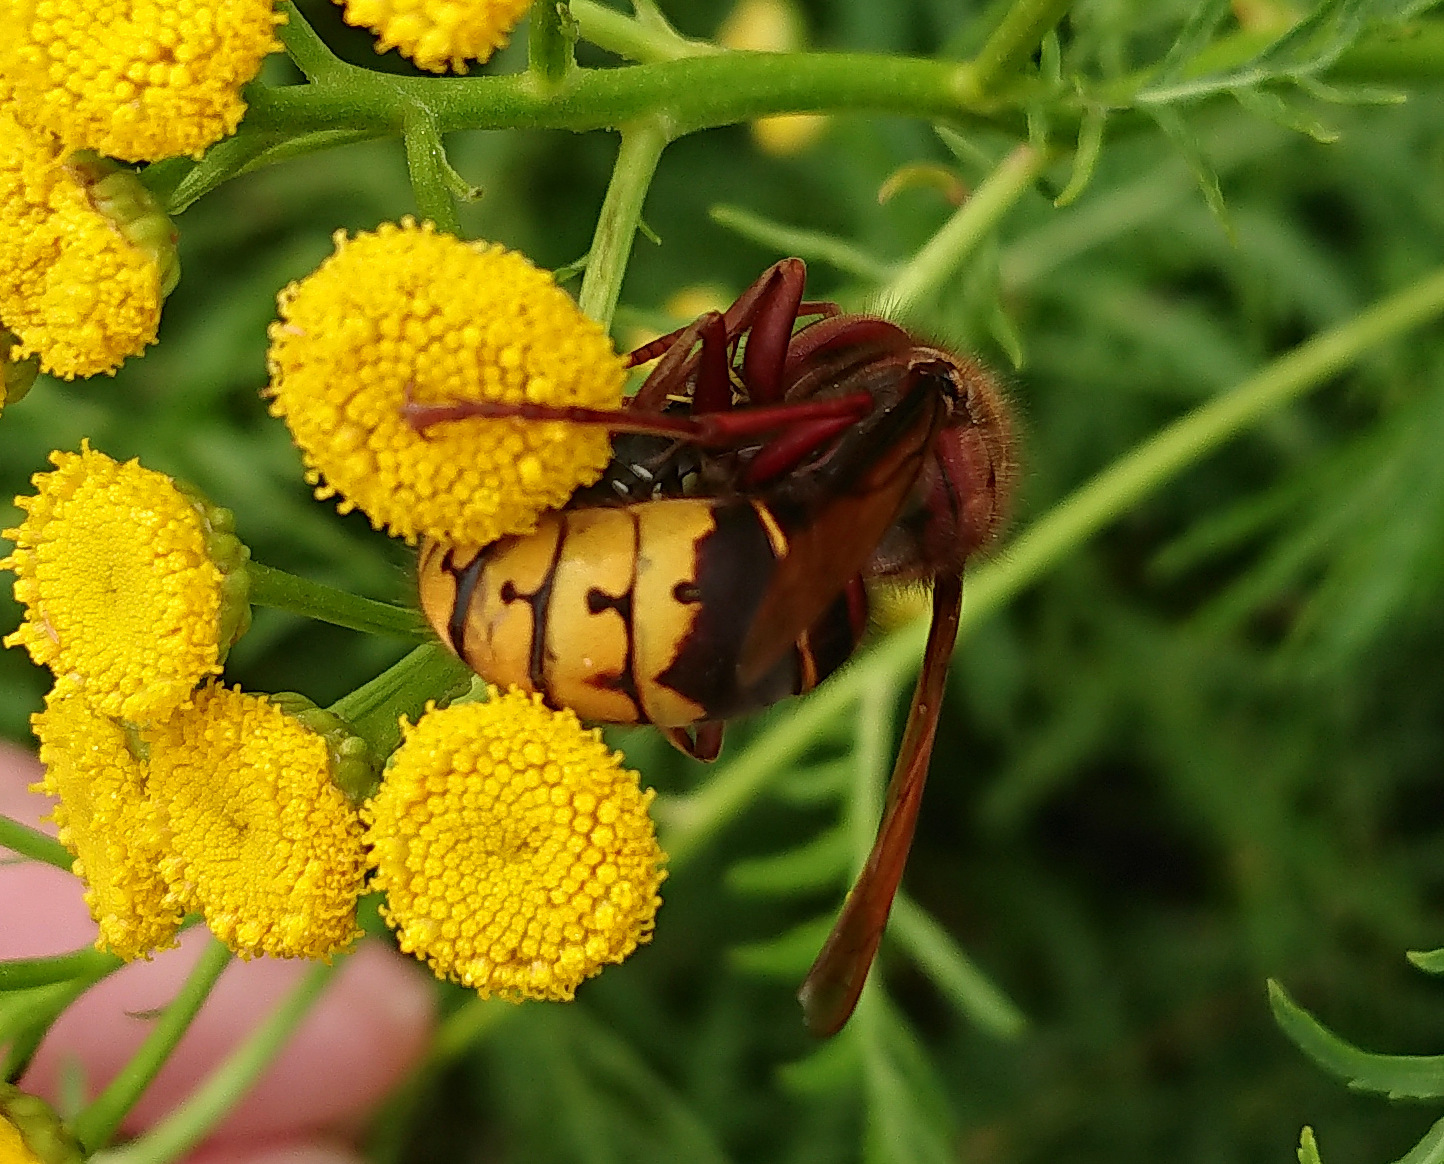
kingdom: Animalia
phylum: Arthropoda
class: Insecta
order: Hymenoptera
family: Vespidae
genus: Vespa
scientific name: Vespa crabro
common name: Hornet
